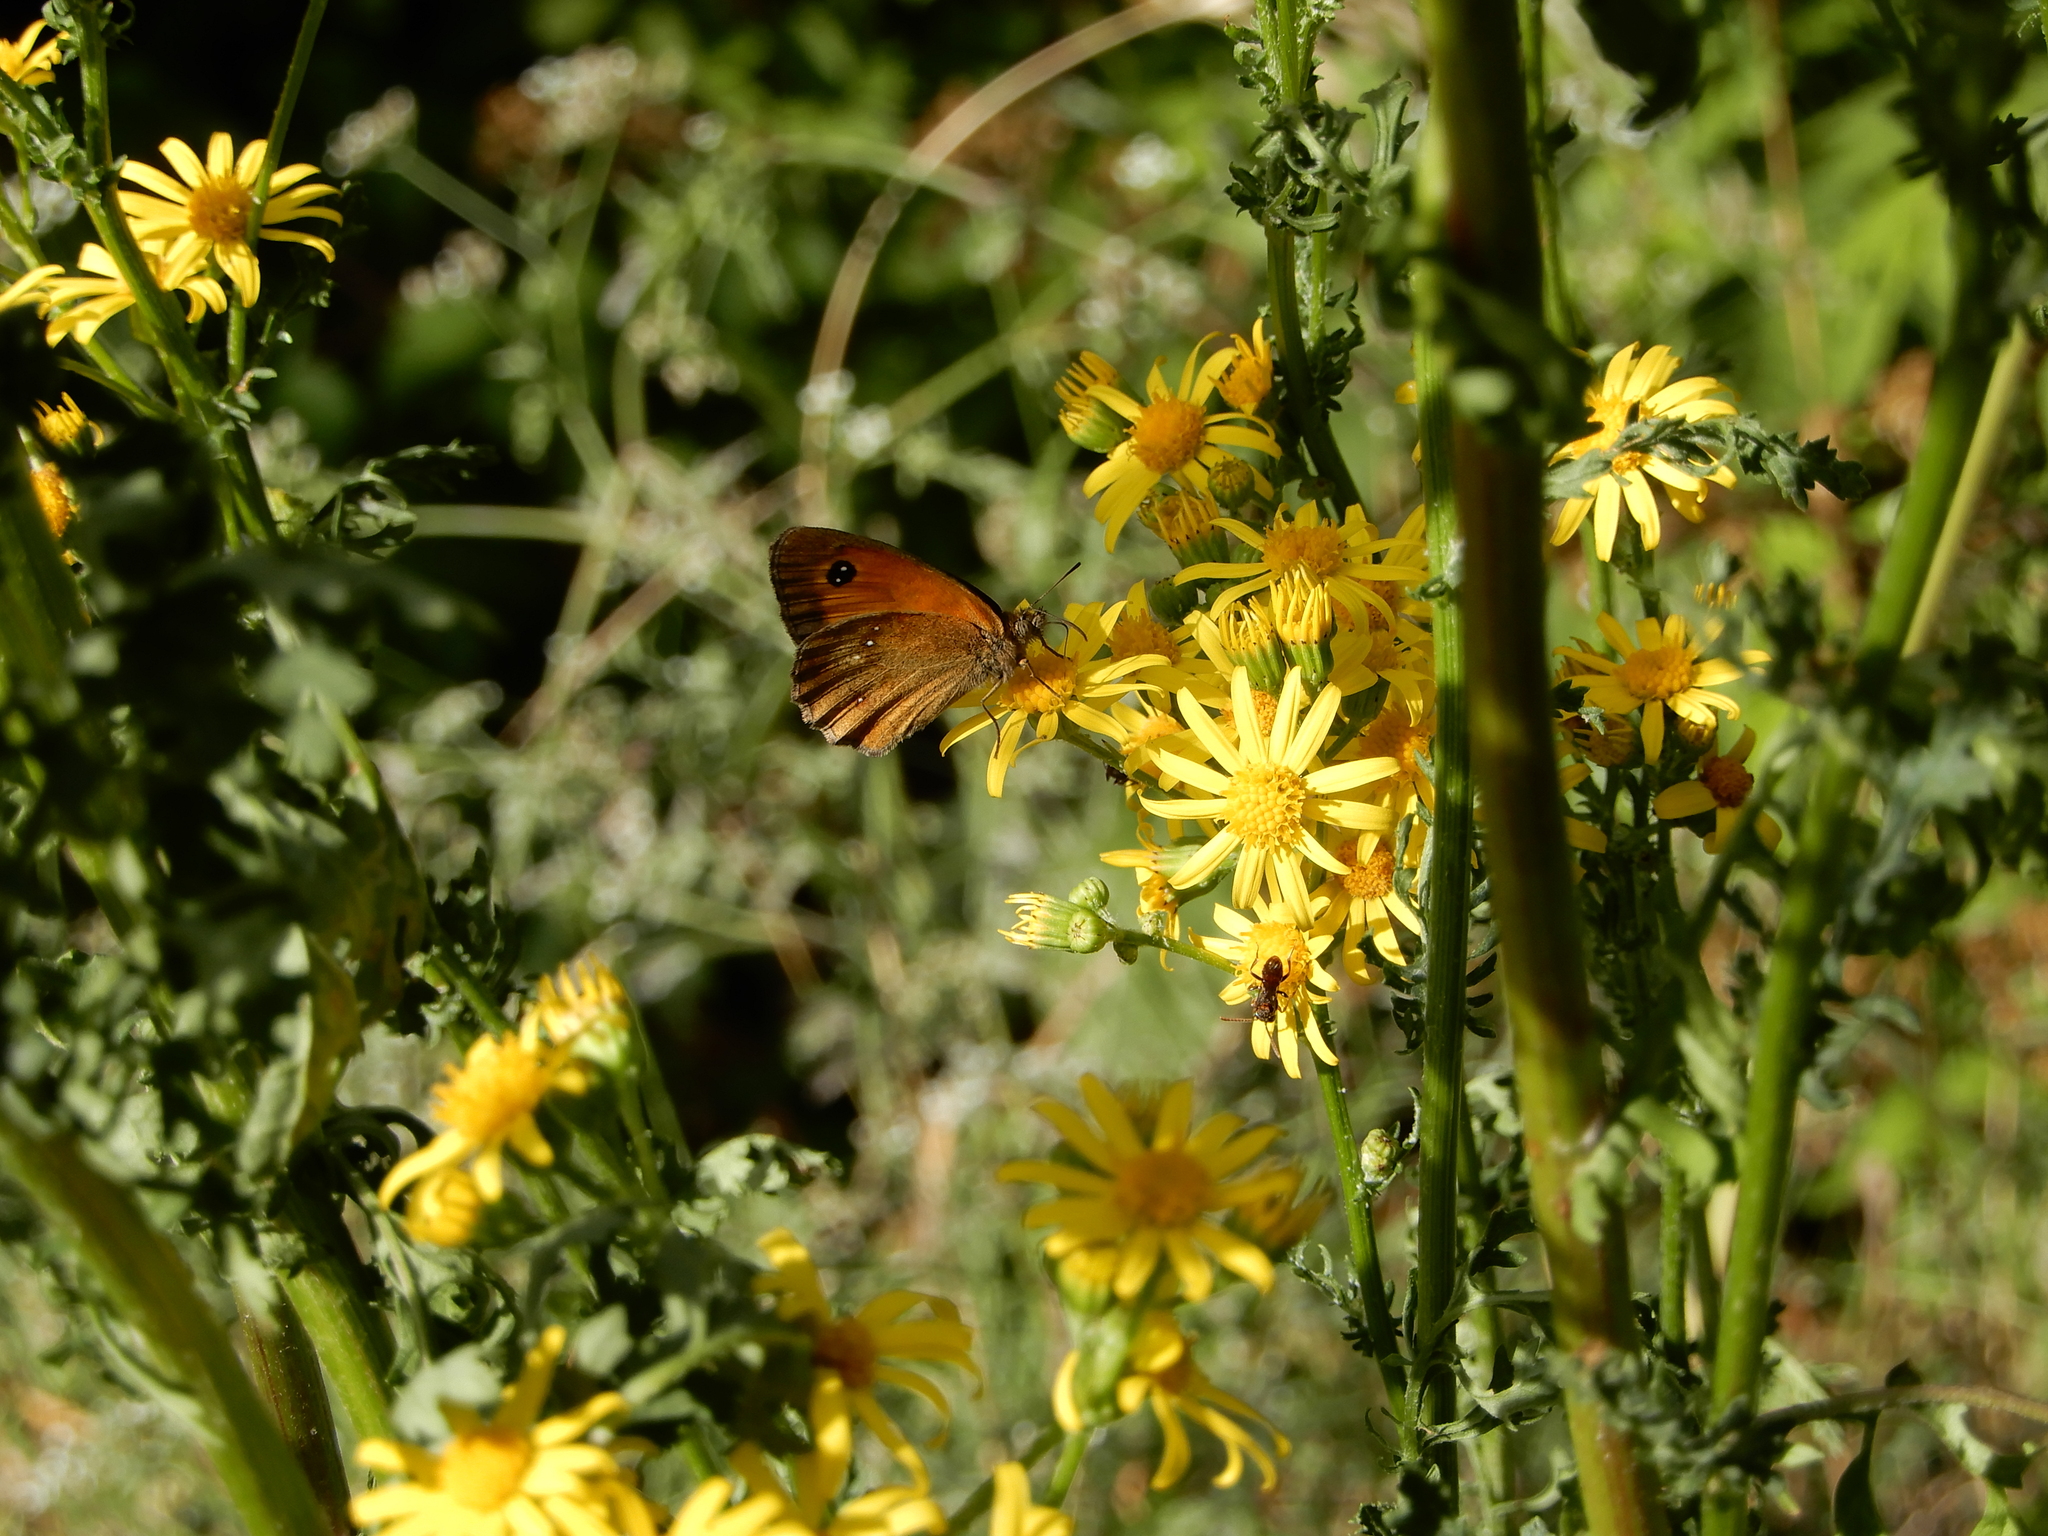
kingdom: Animalia
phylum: Arthropoda
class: Insecta
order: Lepidoptera
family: Nymphalidae
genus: Pyronia
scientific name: Pyronia tithonus
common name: Gatekeeper
